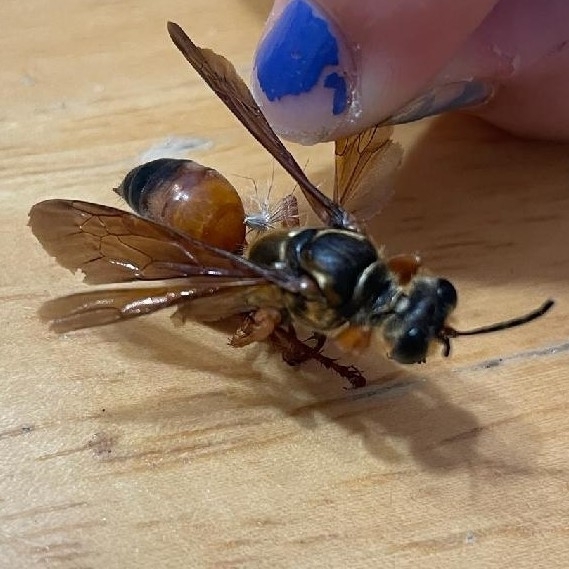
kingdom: Animalia
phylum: Arthropoda
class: Insecta
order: Hymenoptera
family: Sphecidae
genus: Sphex
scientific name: Sphex ichneumoneus
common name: Great golden digger wasp
